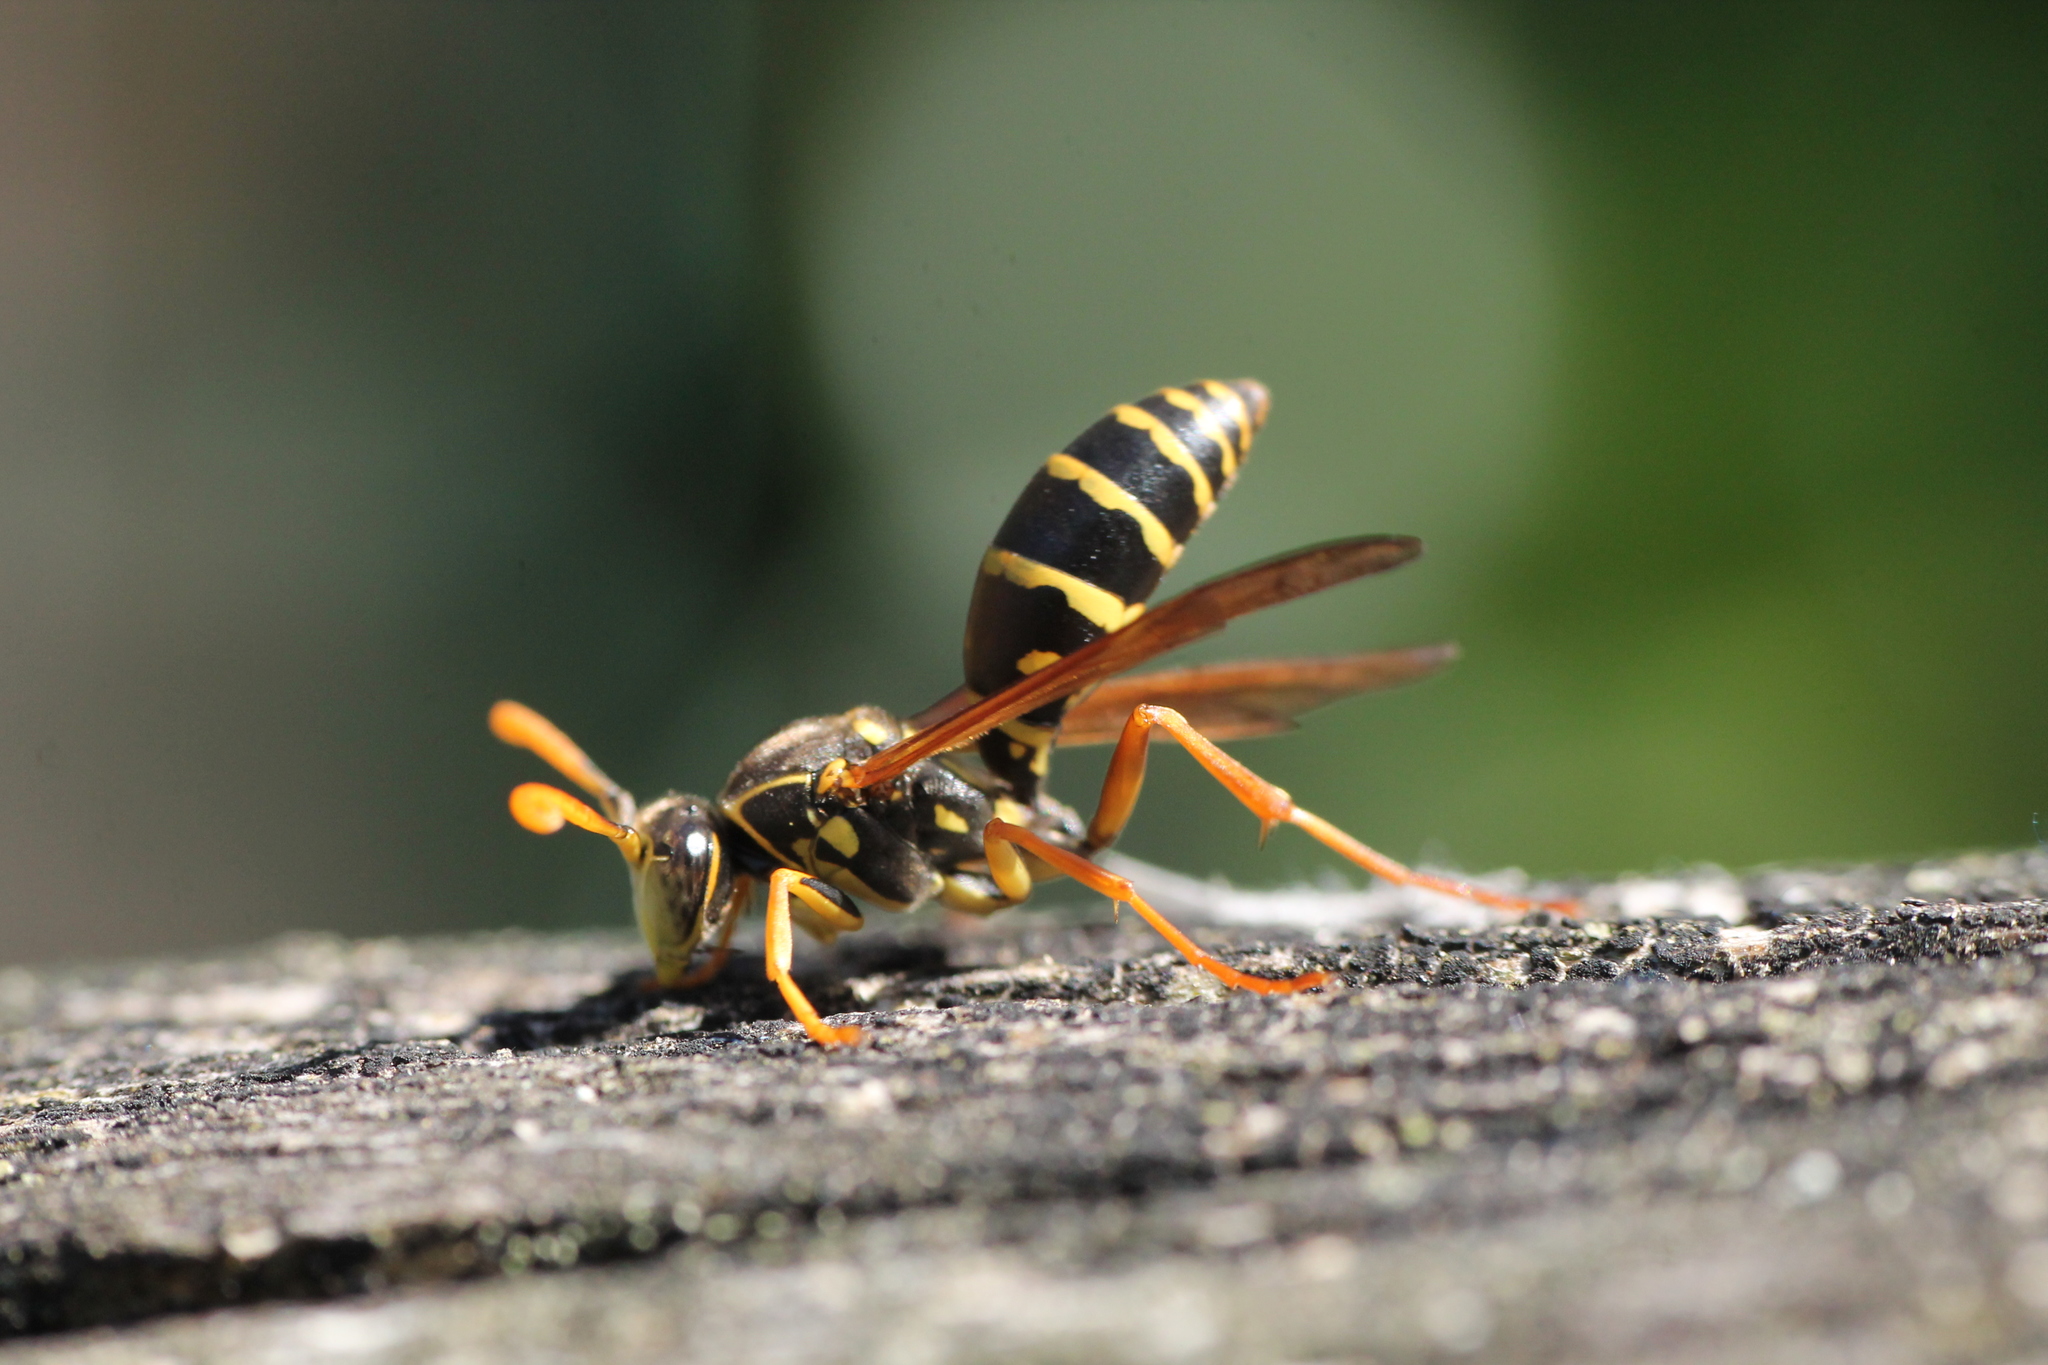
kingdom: Animalia
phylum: Arthropoda
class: Insecta
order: Hymenoptera
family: Eumenidae
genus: Polistes
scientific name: Polistes chinensis
